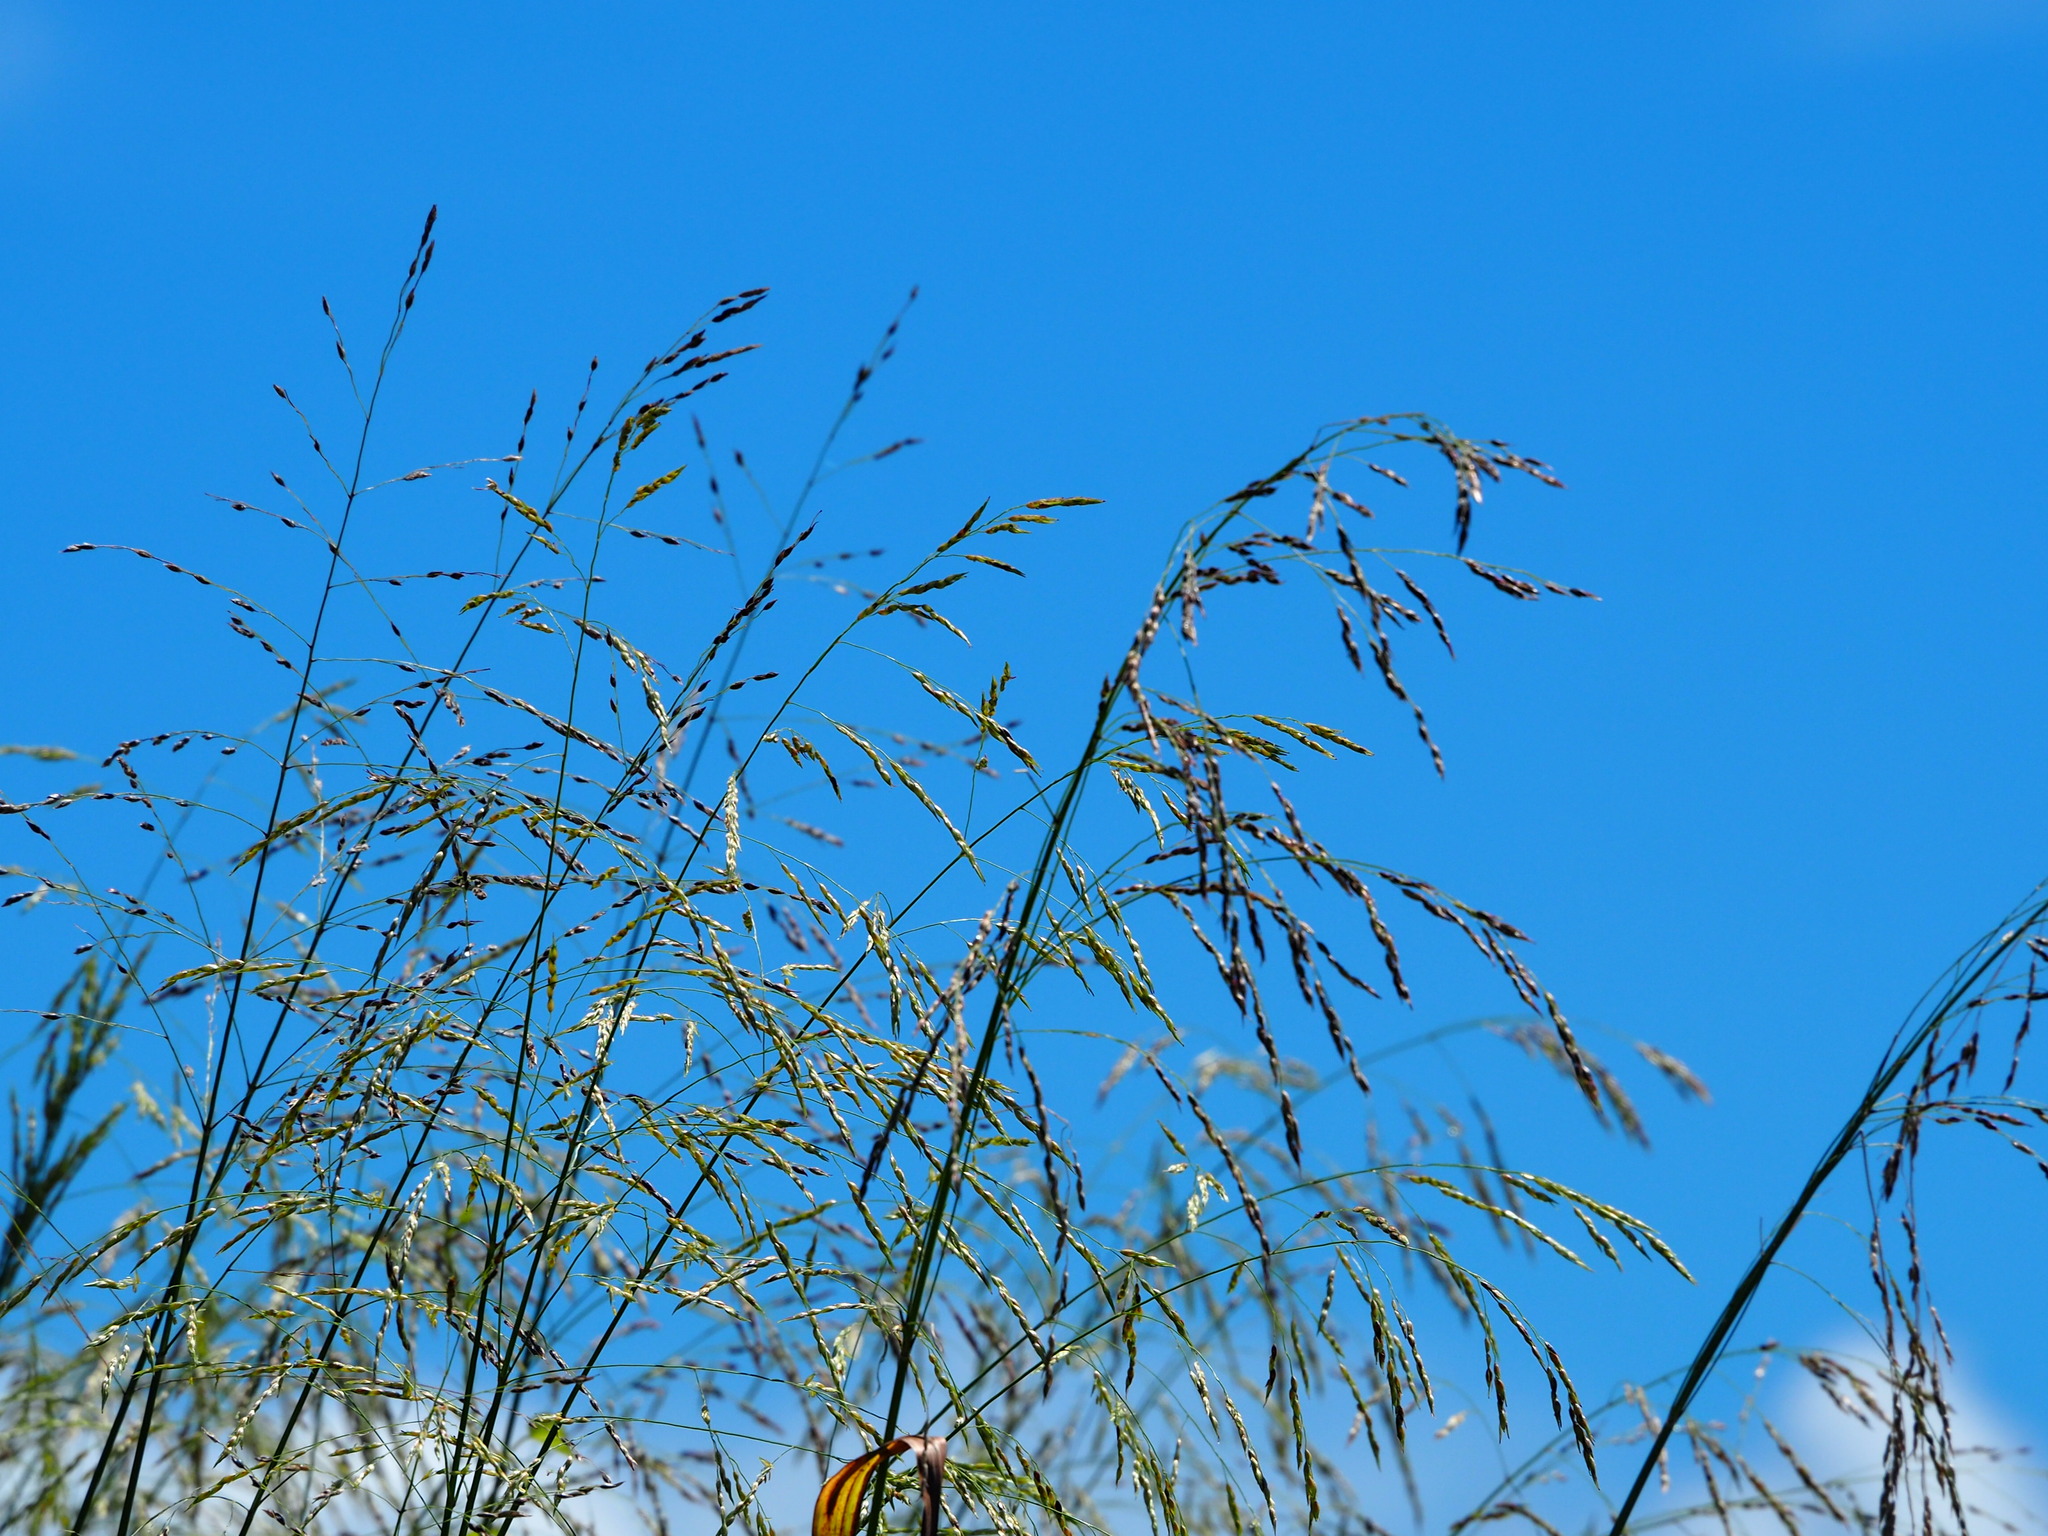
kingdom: Plantae
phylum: Tracheophyta
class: Liliopsida
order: Poales
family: Poaceae
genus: Sorghum
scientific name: Sorghum arundinaceum
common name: Sorghum
